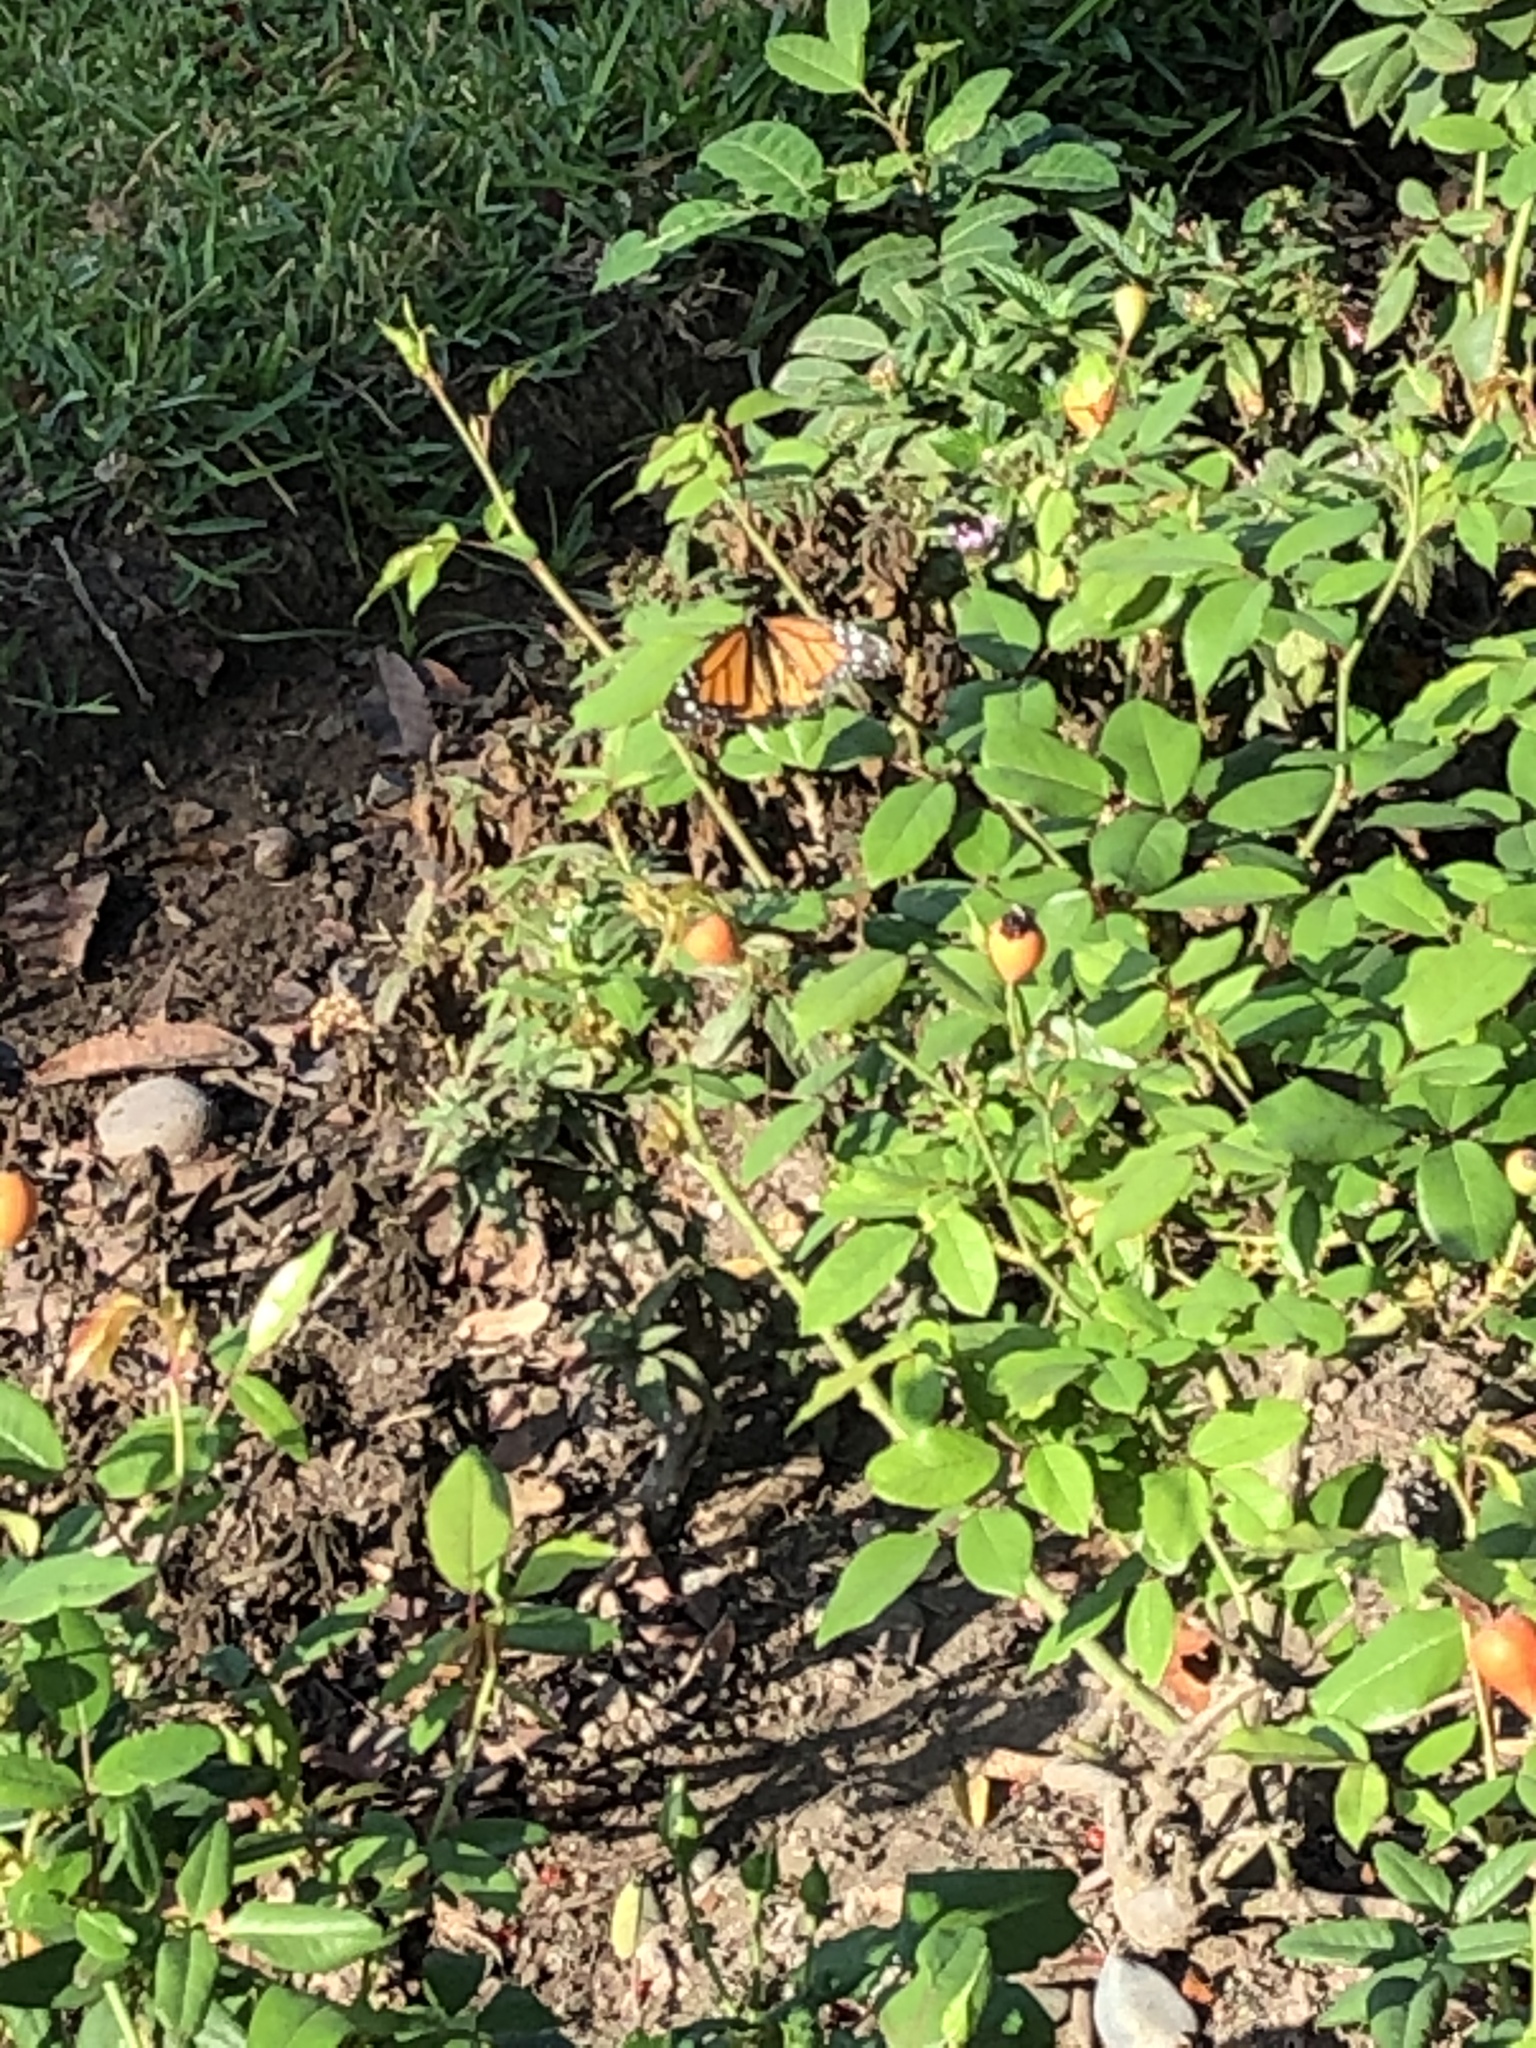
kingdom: Animalia
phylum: Arthropoda
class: Insecta
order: Lepidoptera
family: Nymphalidae
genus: Danaus
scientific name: Danaus plexippus
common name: Monarch
